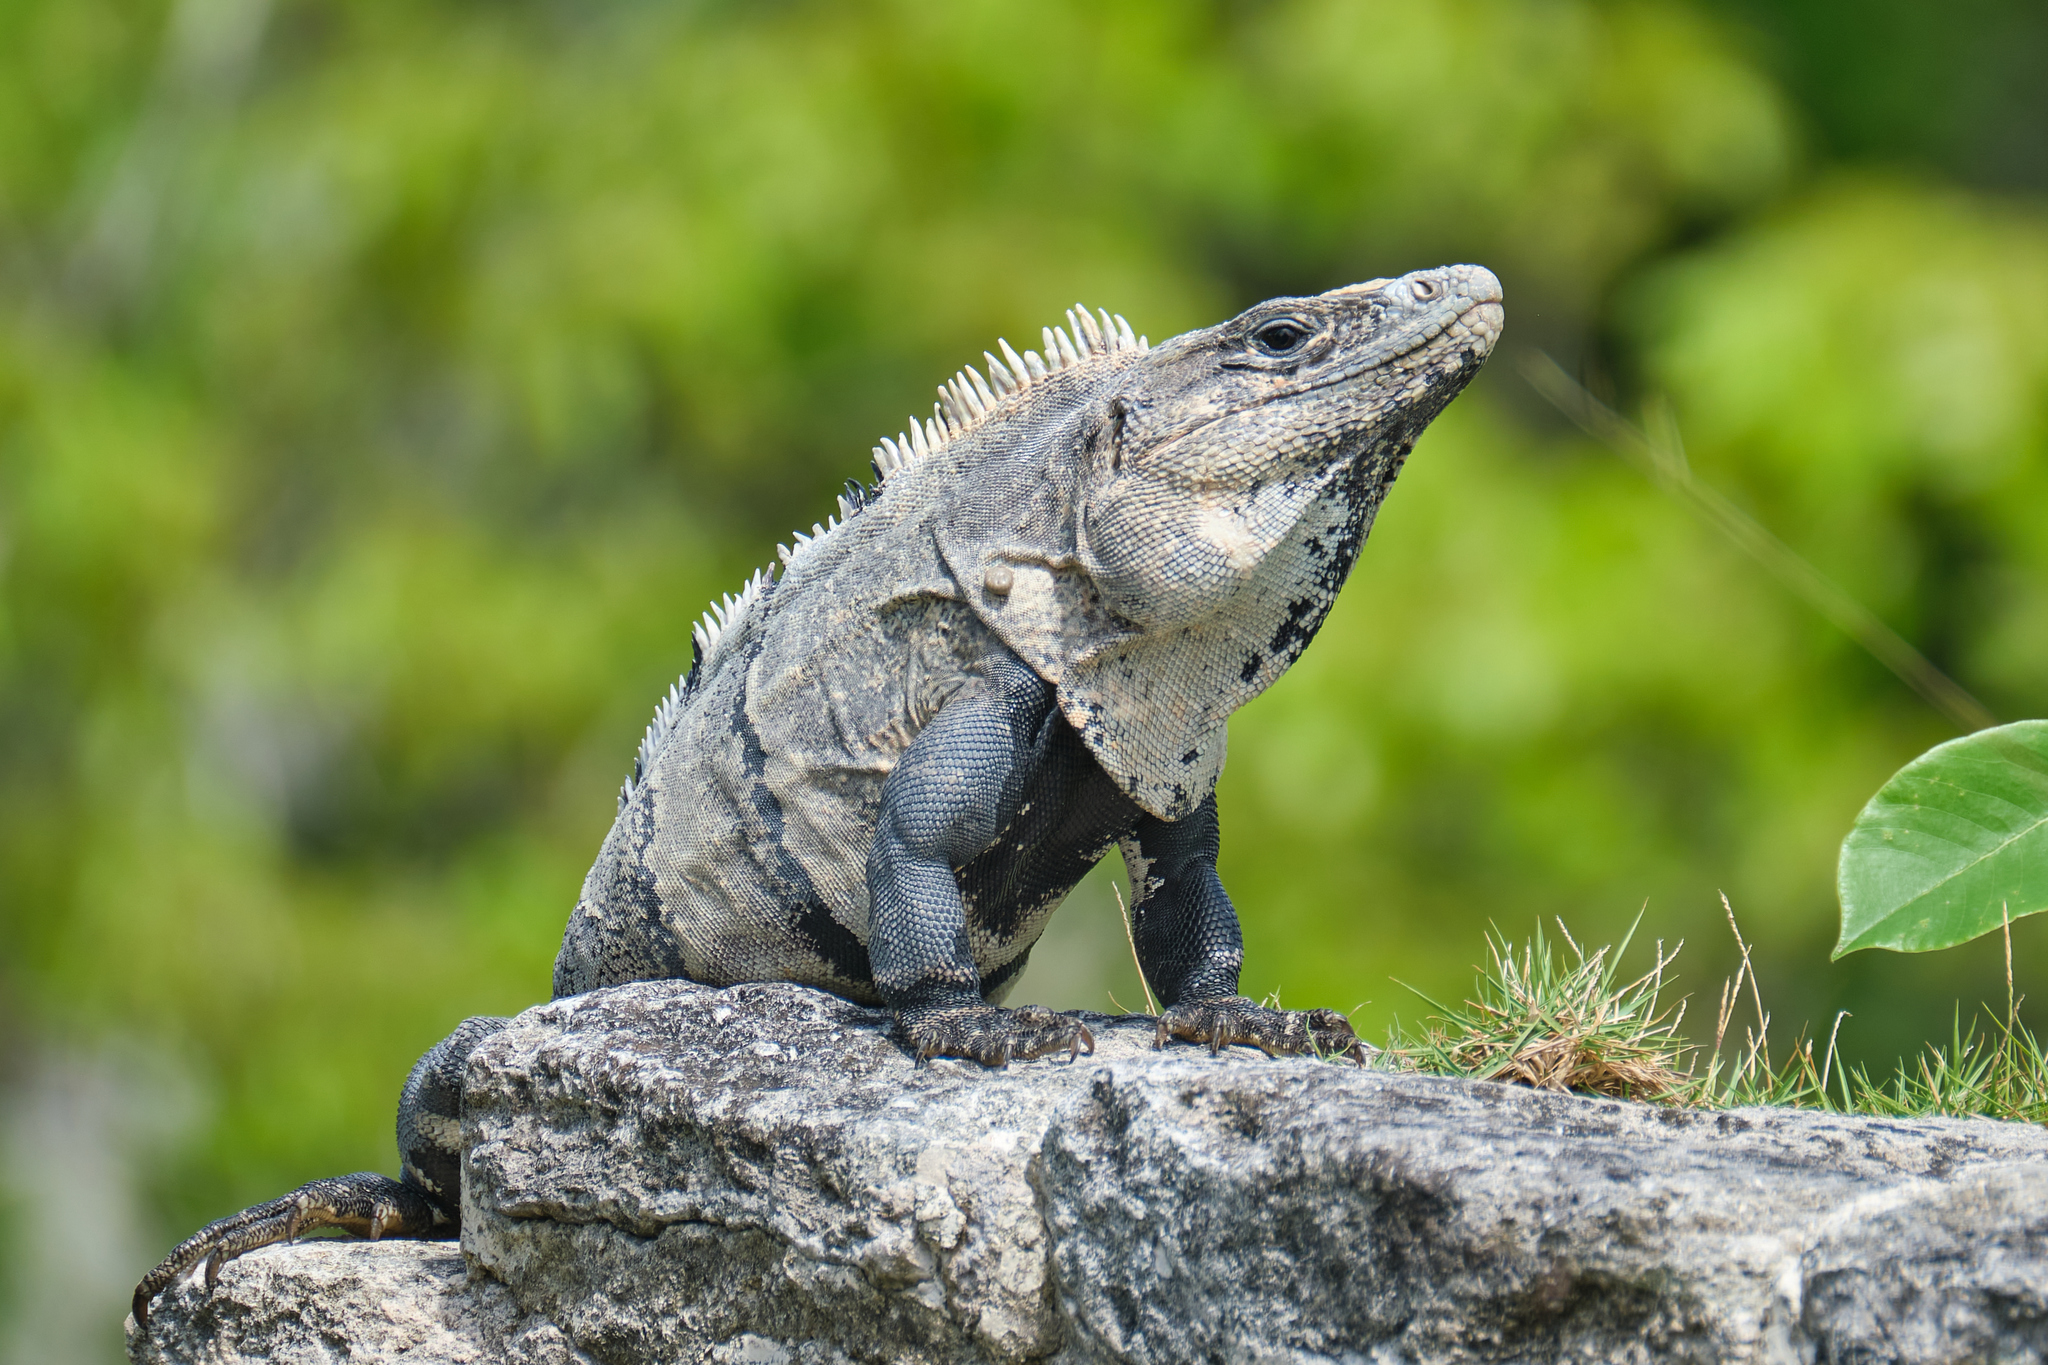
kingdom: Animalia
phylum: Chordata
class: Squamata
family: Iguanidae
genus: Ctenosaura
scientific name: Ctenosaura similis
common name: Black spiny-tailed iguana
